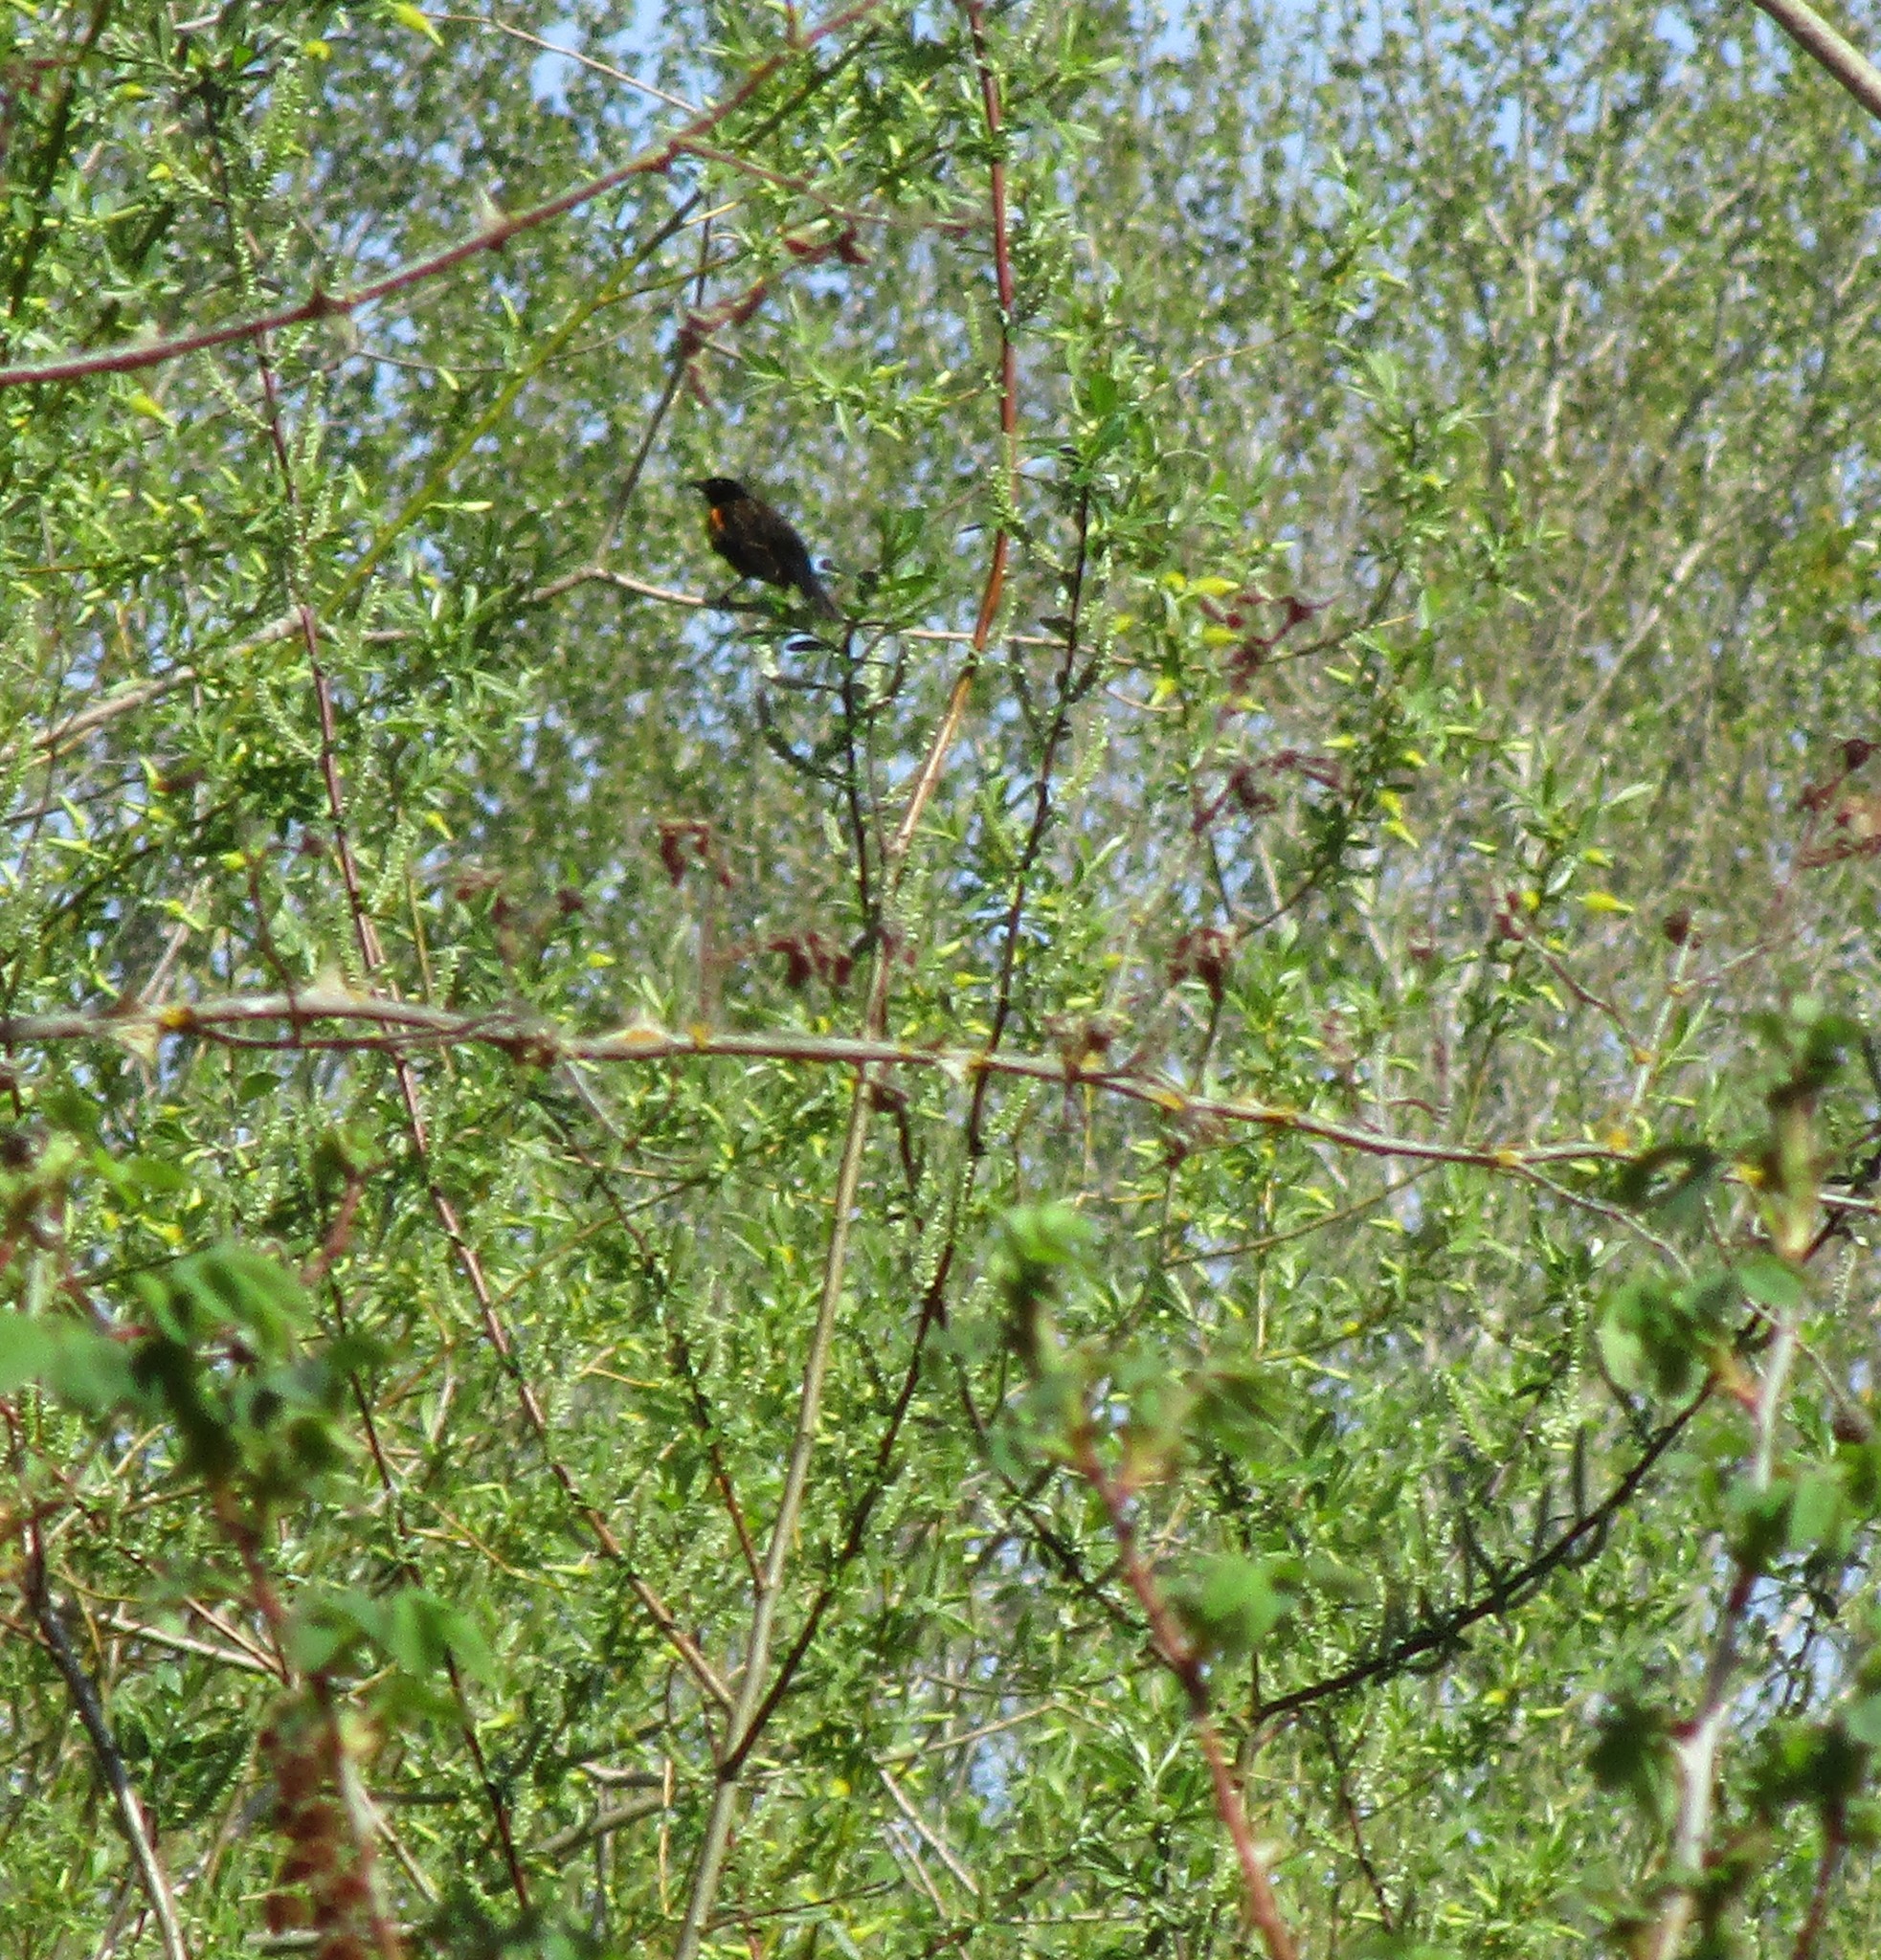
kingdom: Animalia
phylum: Chordata
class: Aves
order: Passeriformes
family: Icteridae
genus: Agelaius
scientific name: Agelaius phoeniceus
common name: Red-winged blackbird
